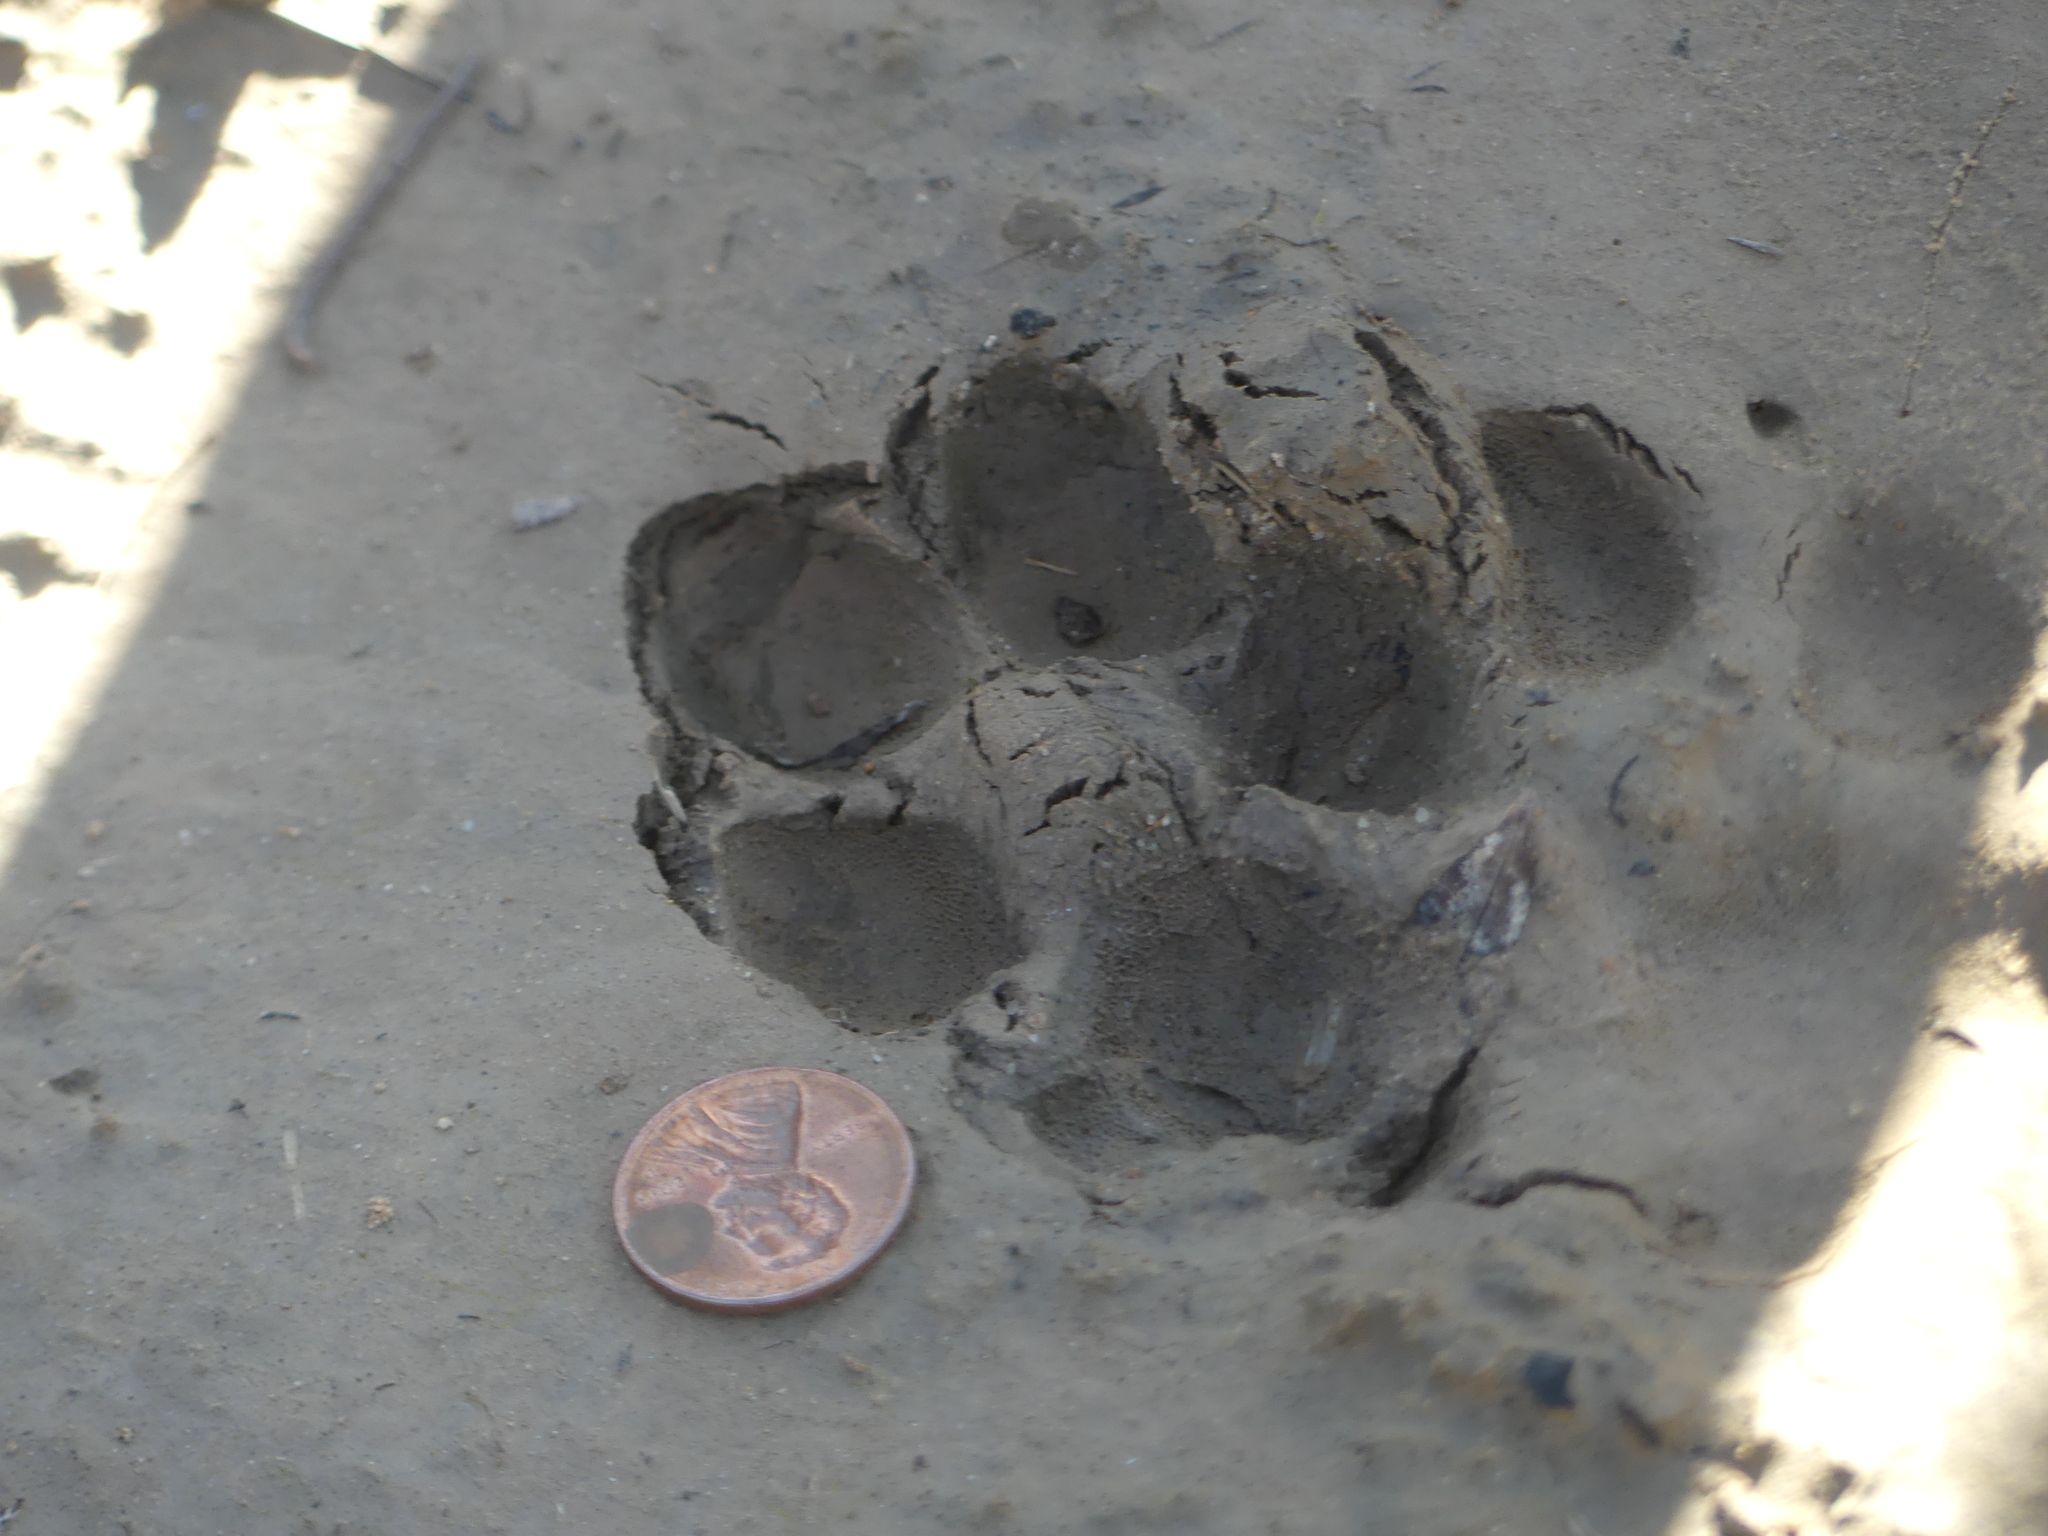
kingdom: Animalia
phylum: Chordata
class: Mammalia
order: Carnivora
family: Canidae
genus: Canis
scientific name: Canis latrans
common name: Coyote
